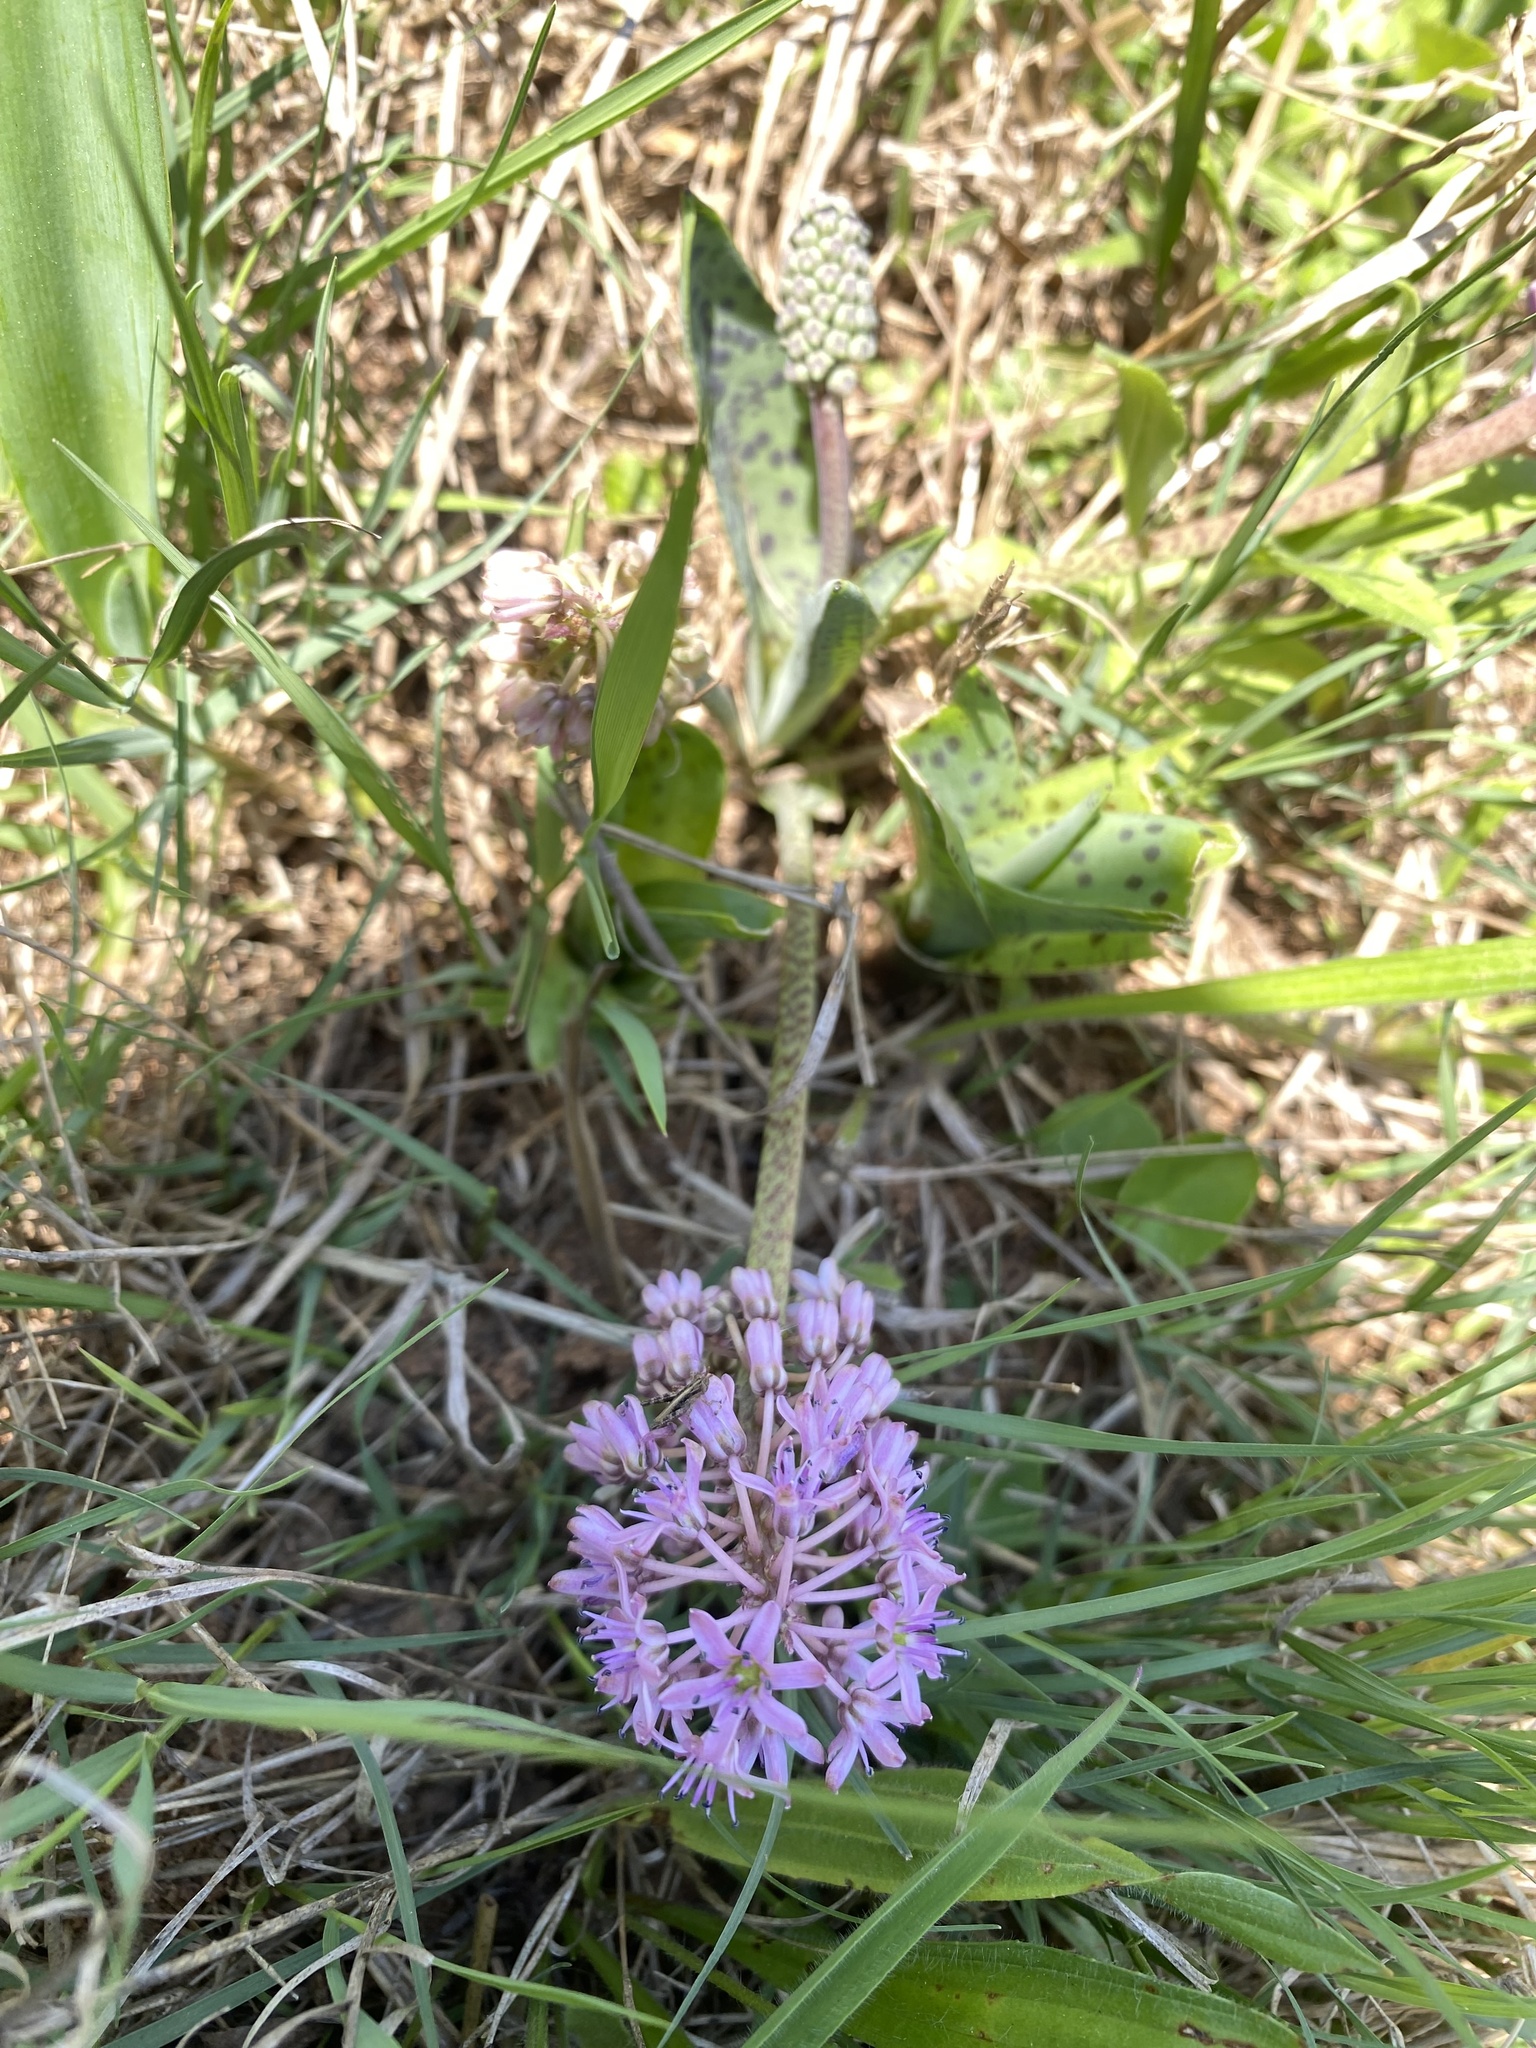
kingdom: Plantae
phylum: Tracheophyta
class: Liliopsida
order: Asparagales
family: Asparagaceae
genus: Ledebouria
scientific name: Ledebouria cooperi
